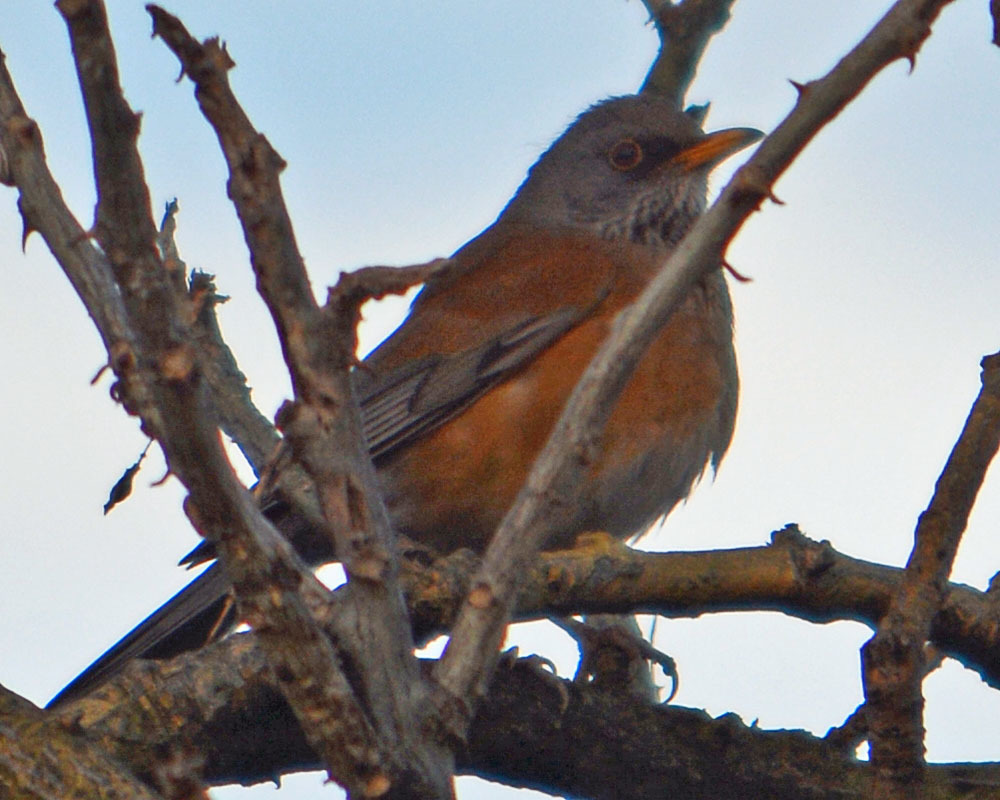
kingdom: Animalia
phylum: Chordata
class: Aves
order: Passeriformes
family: Turdidae
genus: Turdus
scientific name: Turdus rufopalliatus
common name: Rufous-backed robin
